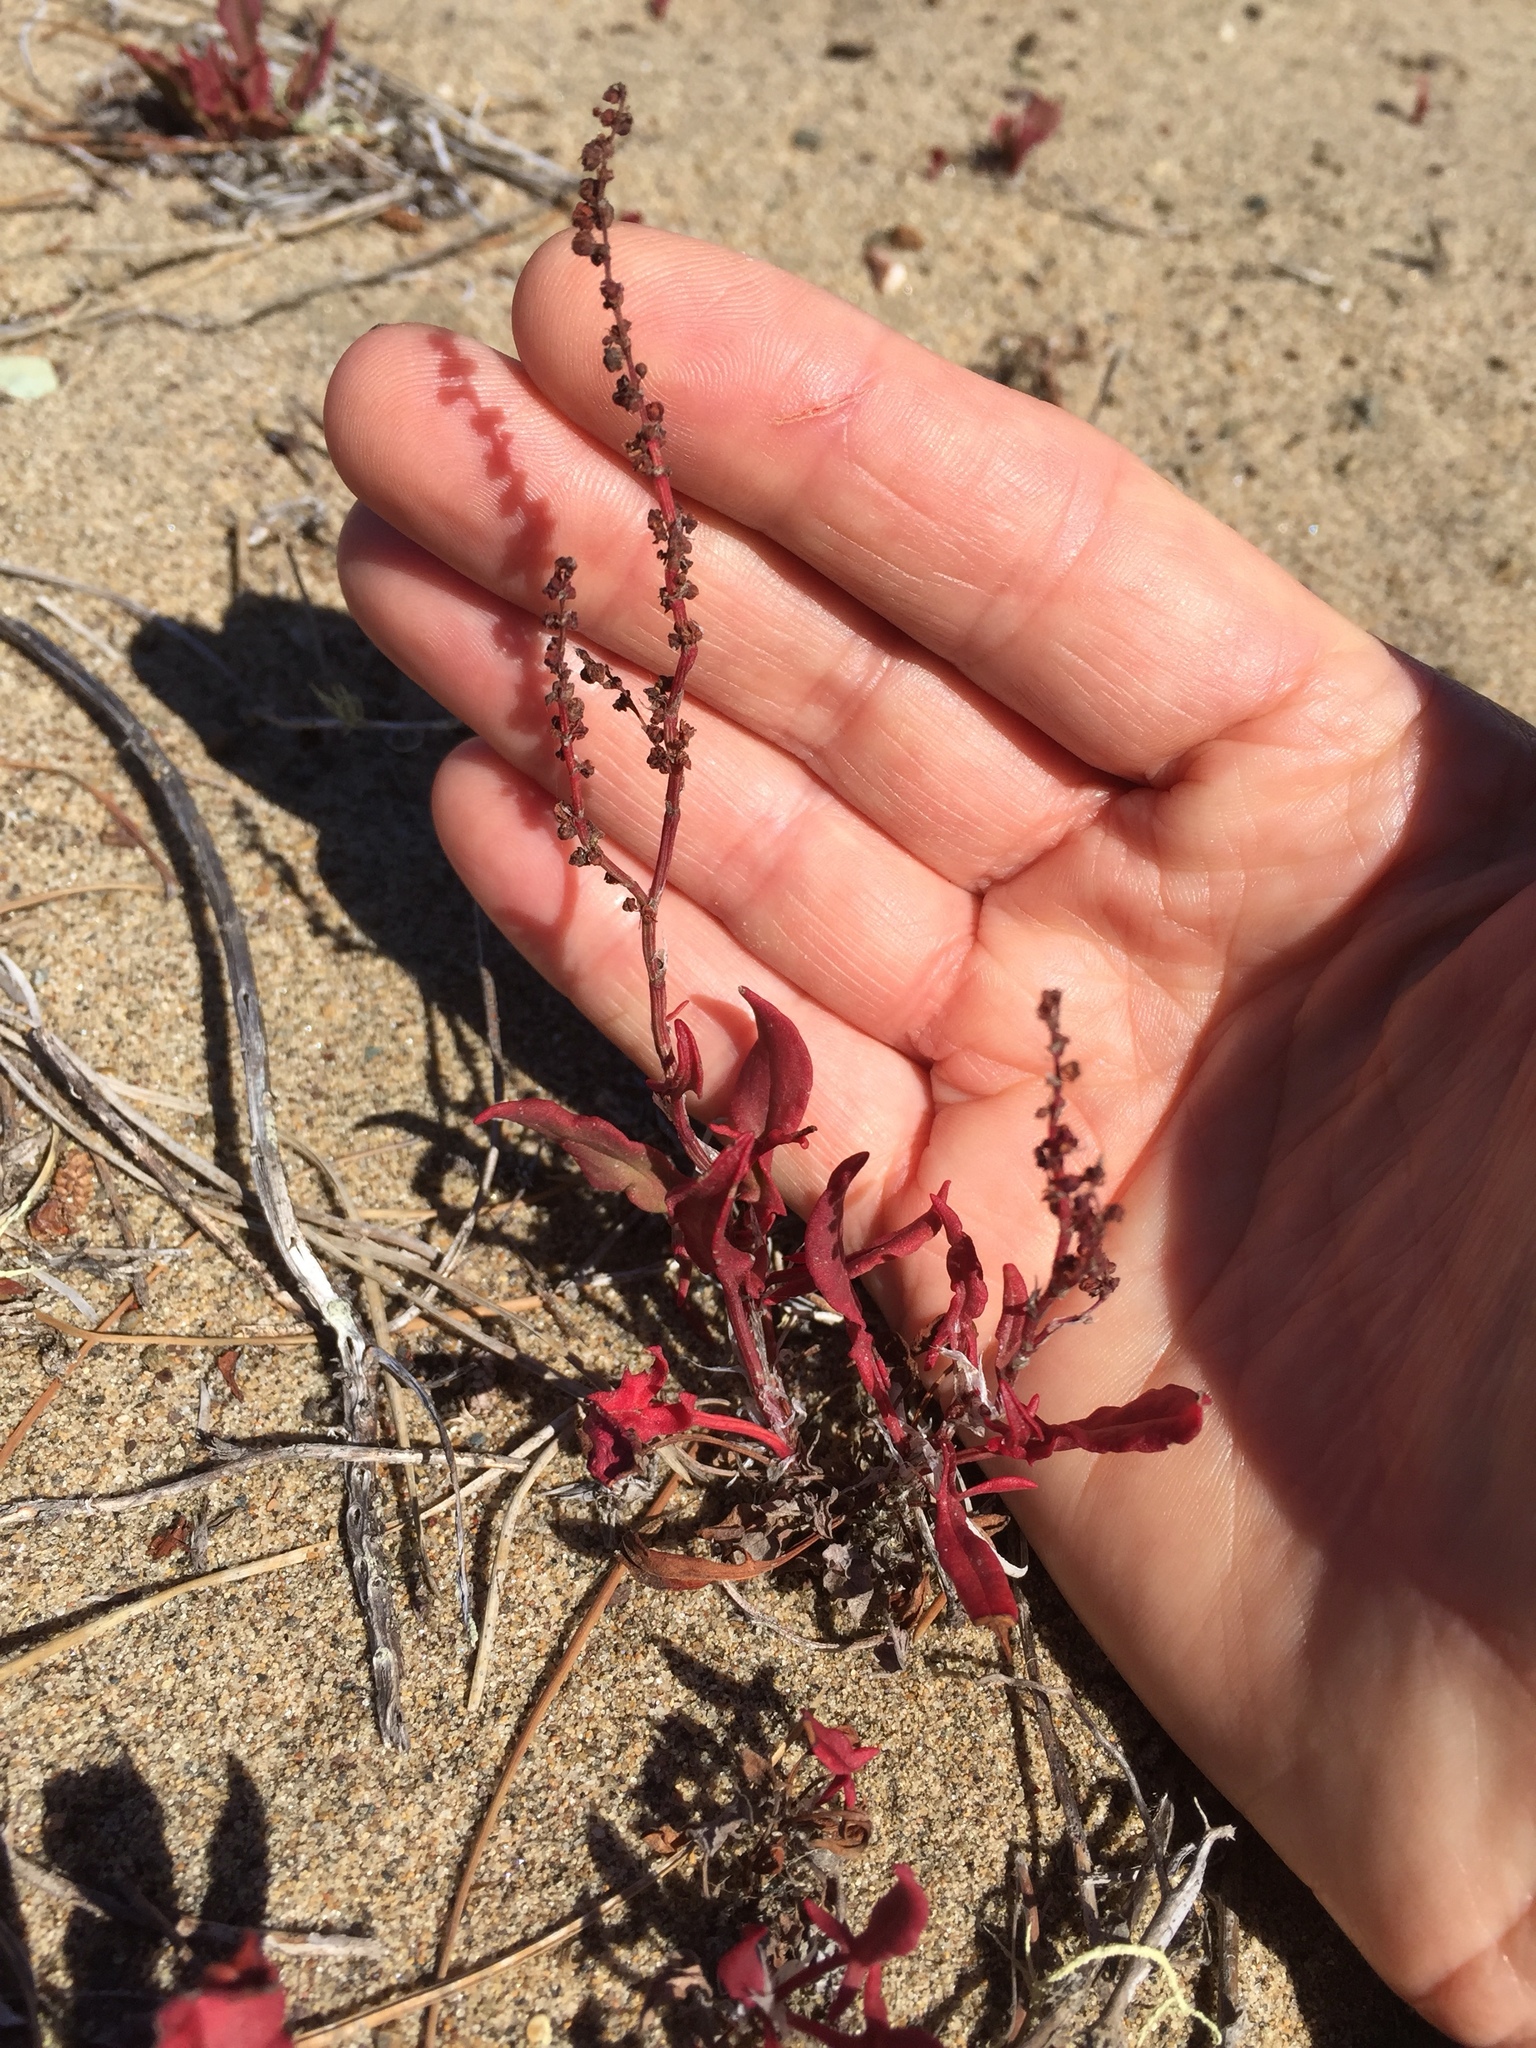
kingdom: Plantae
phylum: Tracheophyta
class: Magnoliopsida
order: Caryophyllales
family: Polygonaceae
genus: Rumex
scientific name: Rumex acetosella
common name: Common sheep sorrel
